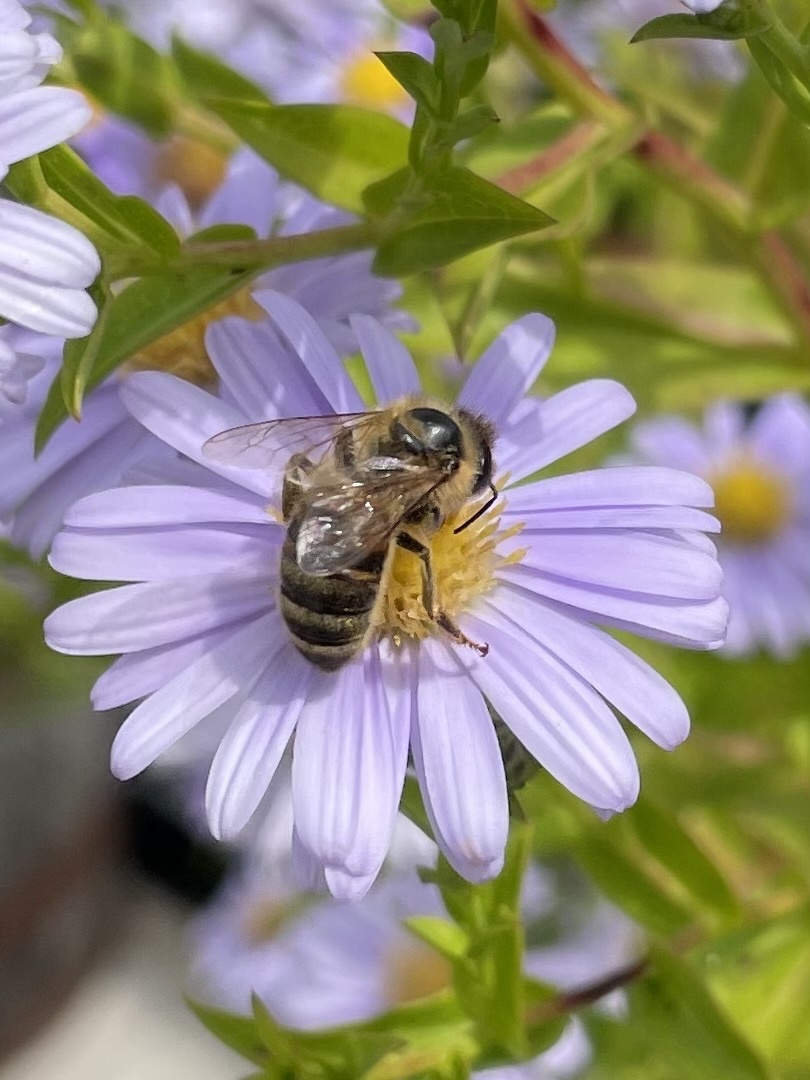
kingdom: Animalia
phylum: Arthropoda
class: Insecta
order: Hymenoptera
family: Apidae
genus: Apis
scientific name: Apis mellifera
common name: Honey bee
